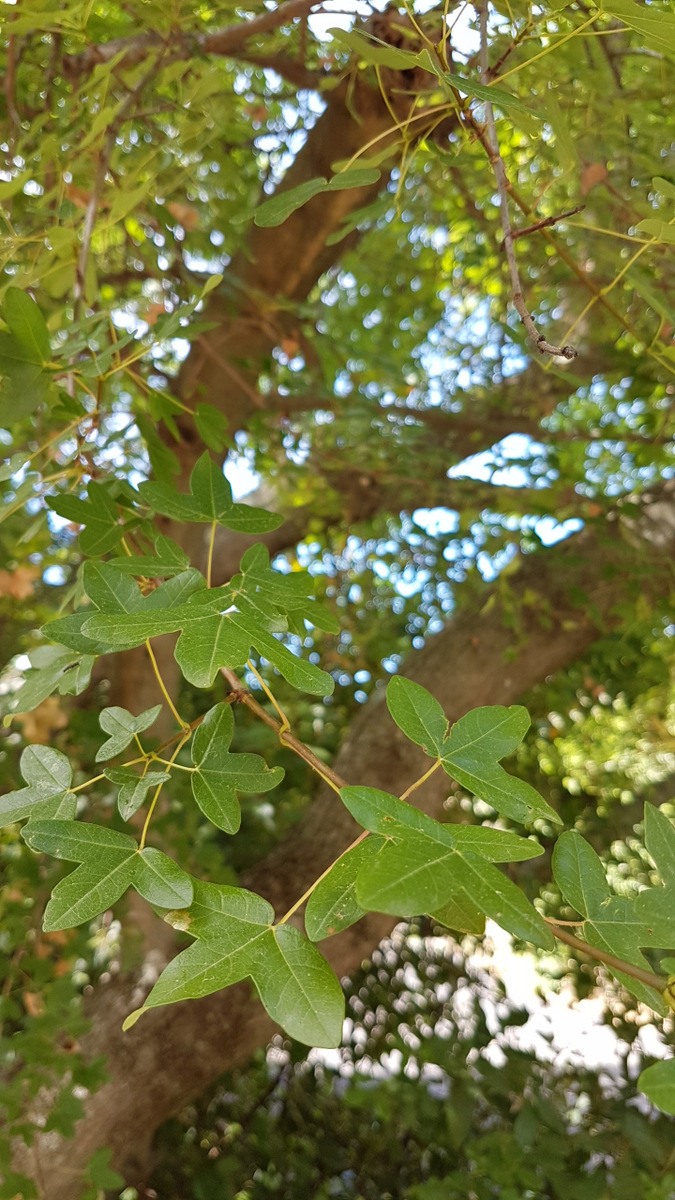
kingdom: Plantae
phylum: Tracheophyta
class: Magnoliopsida
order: Sapindales
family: Sapindaceae
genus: Acer
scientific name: Acer monspessulanum
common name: Montpellier maple
